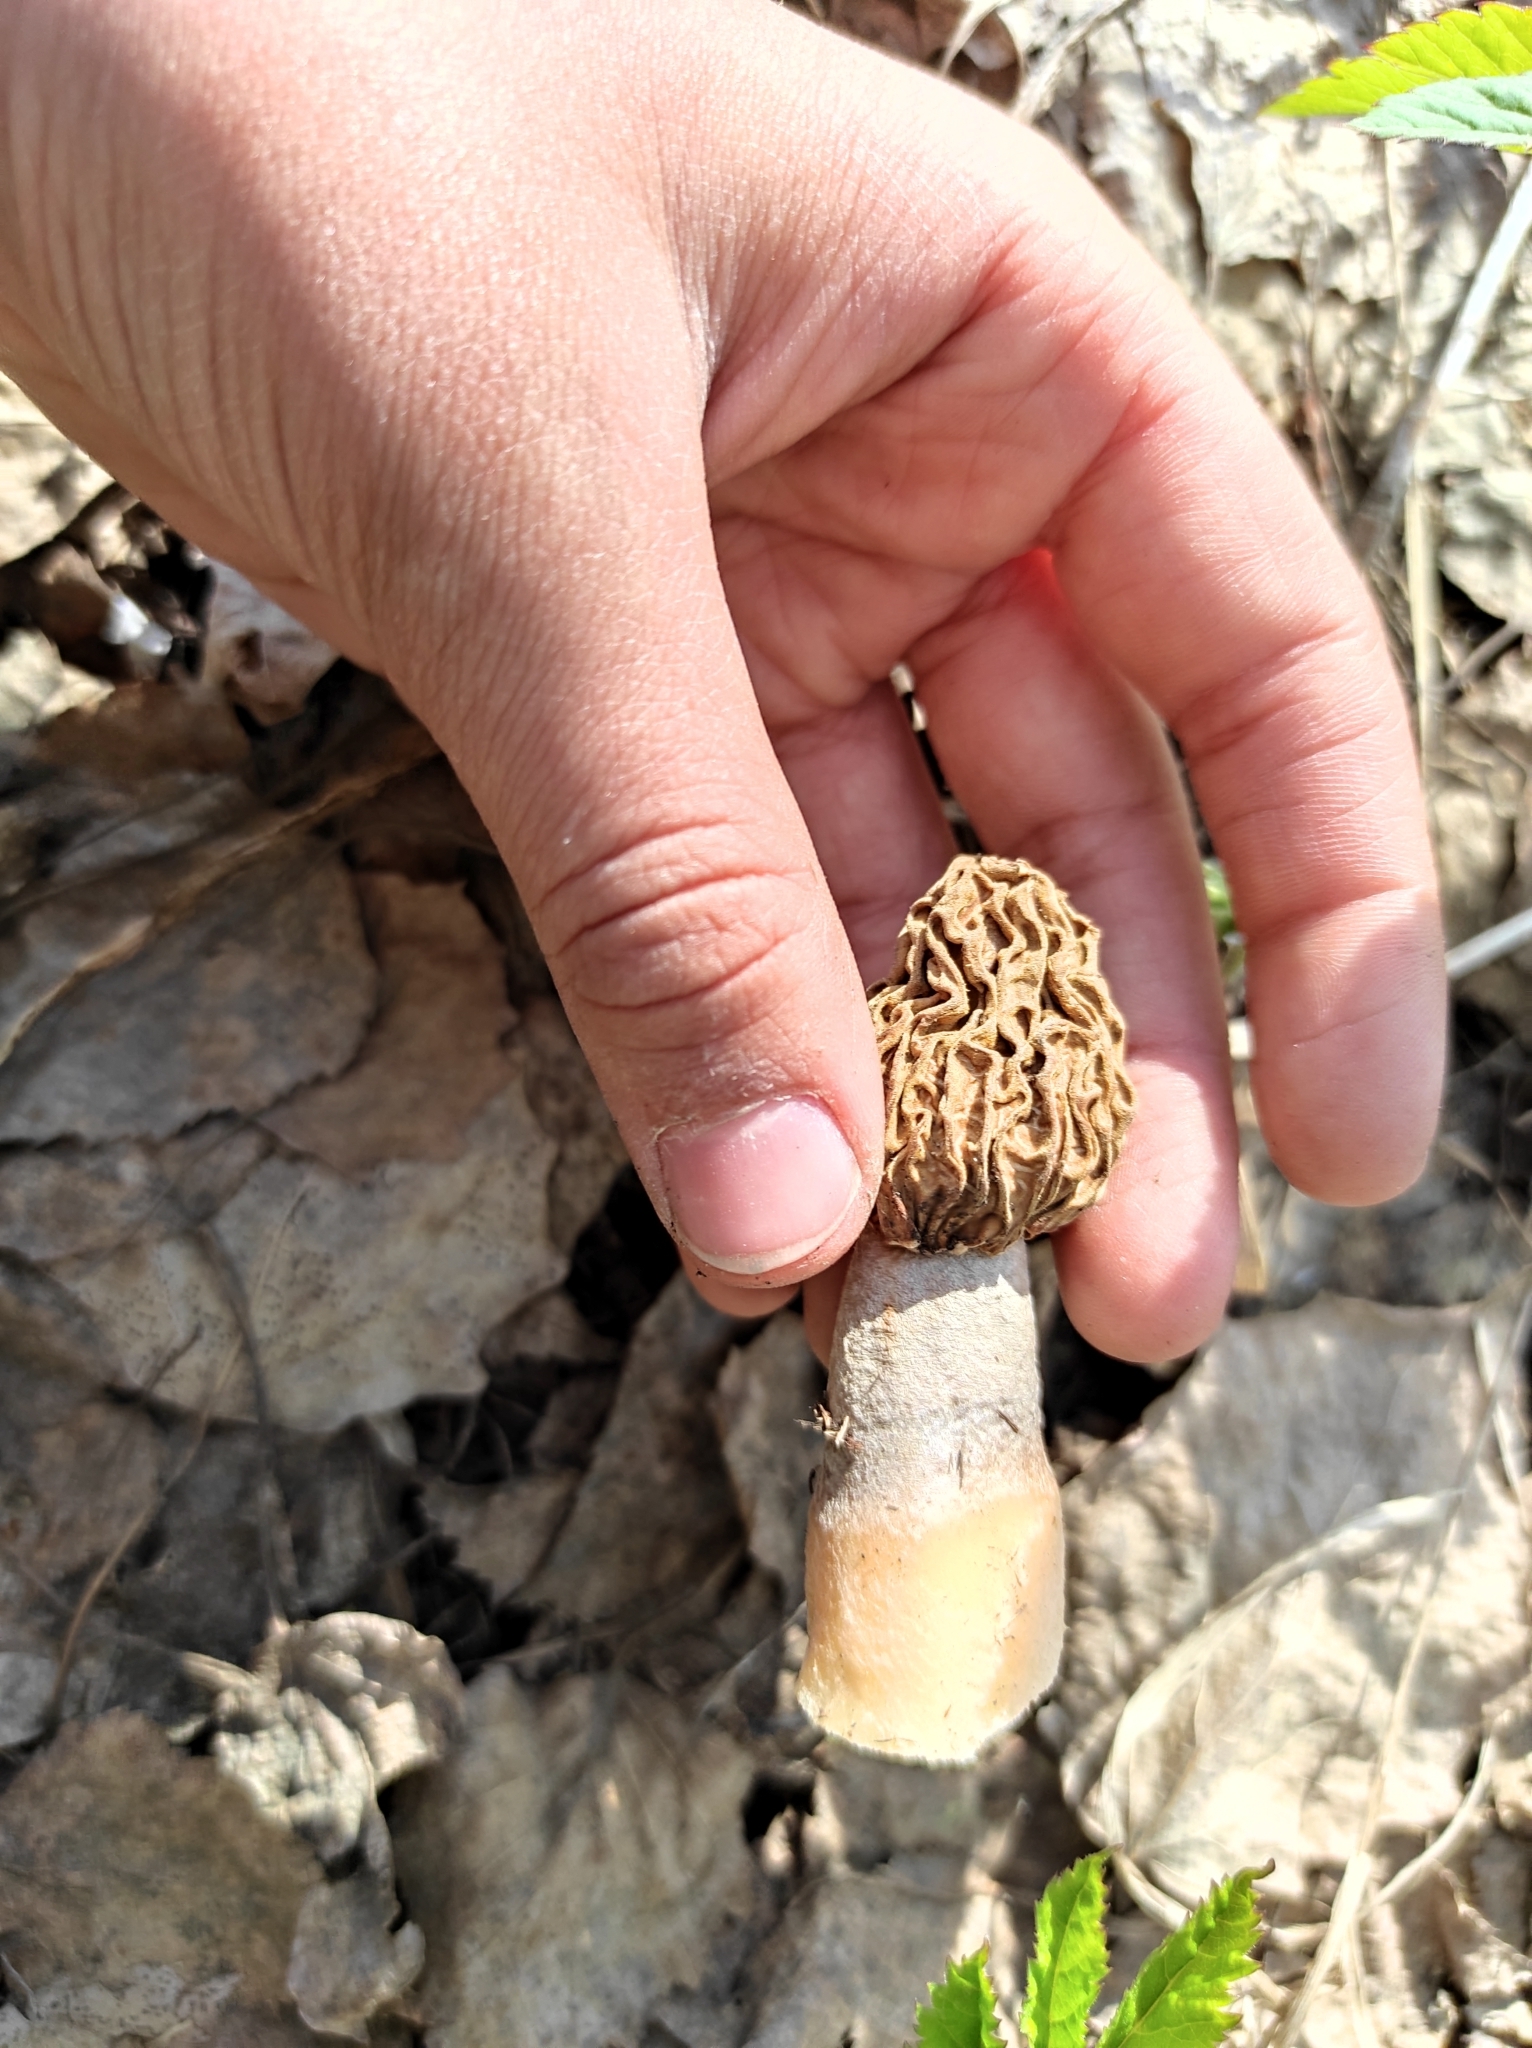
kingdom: Fungi
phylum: Ascomycota
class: Pezizomycetes
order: Pezizales
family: Morchellaceae
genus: Verpa
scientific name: Verpa bohemica
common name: Wrinkled thimble morel
